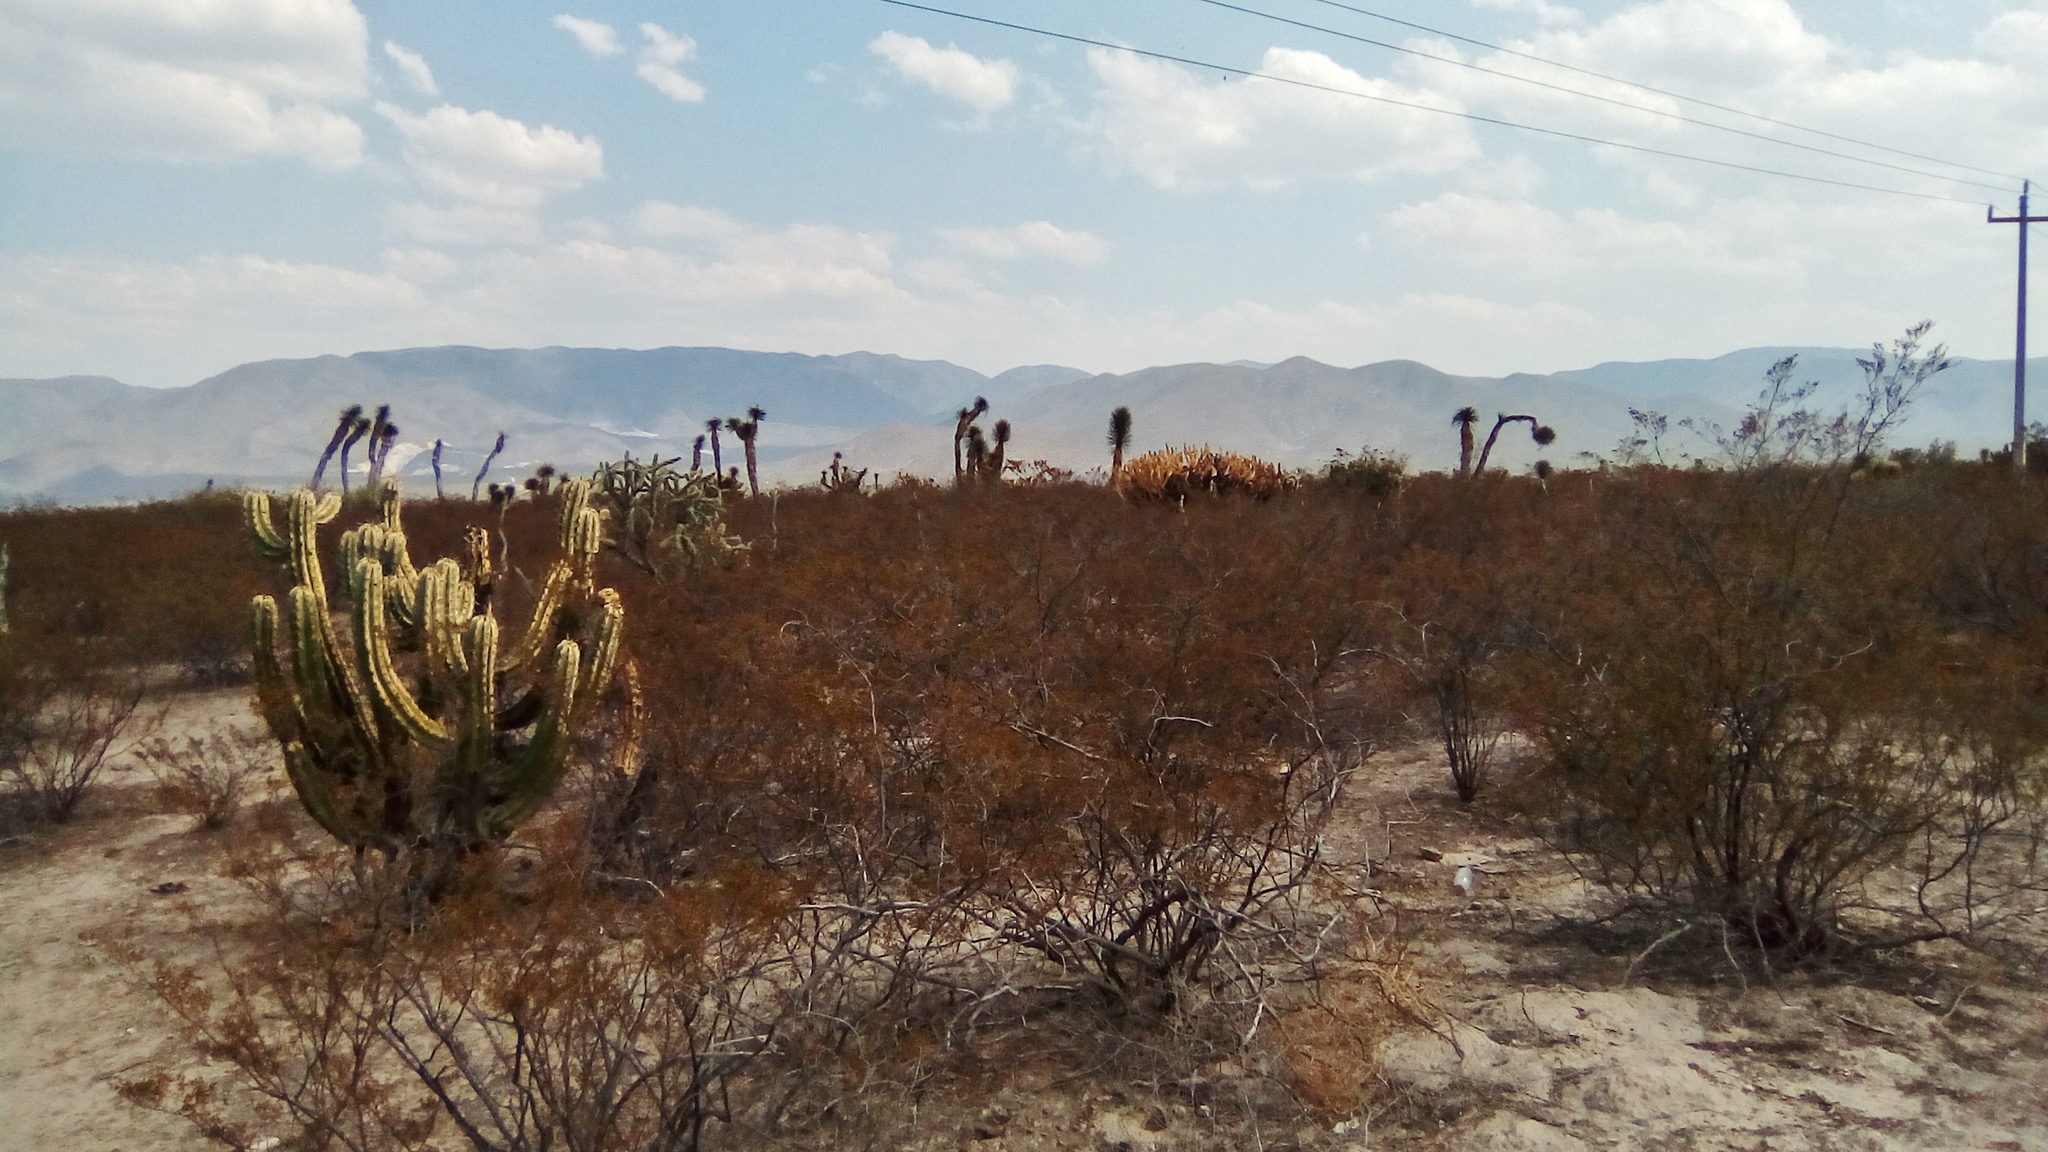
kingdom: Plantae
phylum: Tracheophyta
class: Magnoliopsida
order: Caryophyllales
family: Cactaceae
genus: Myrtillocactus
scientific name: Myrtillocactus geometrizans
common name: Bilberry cactus
